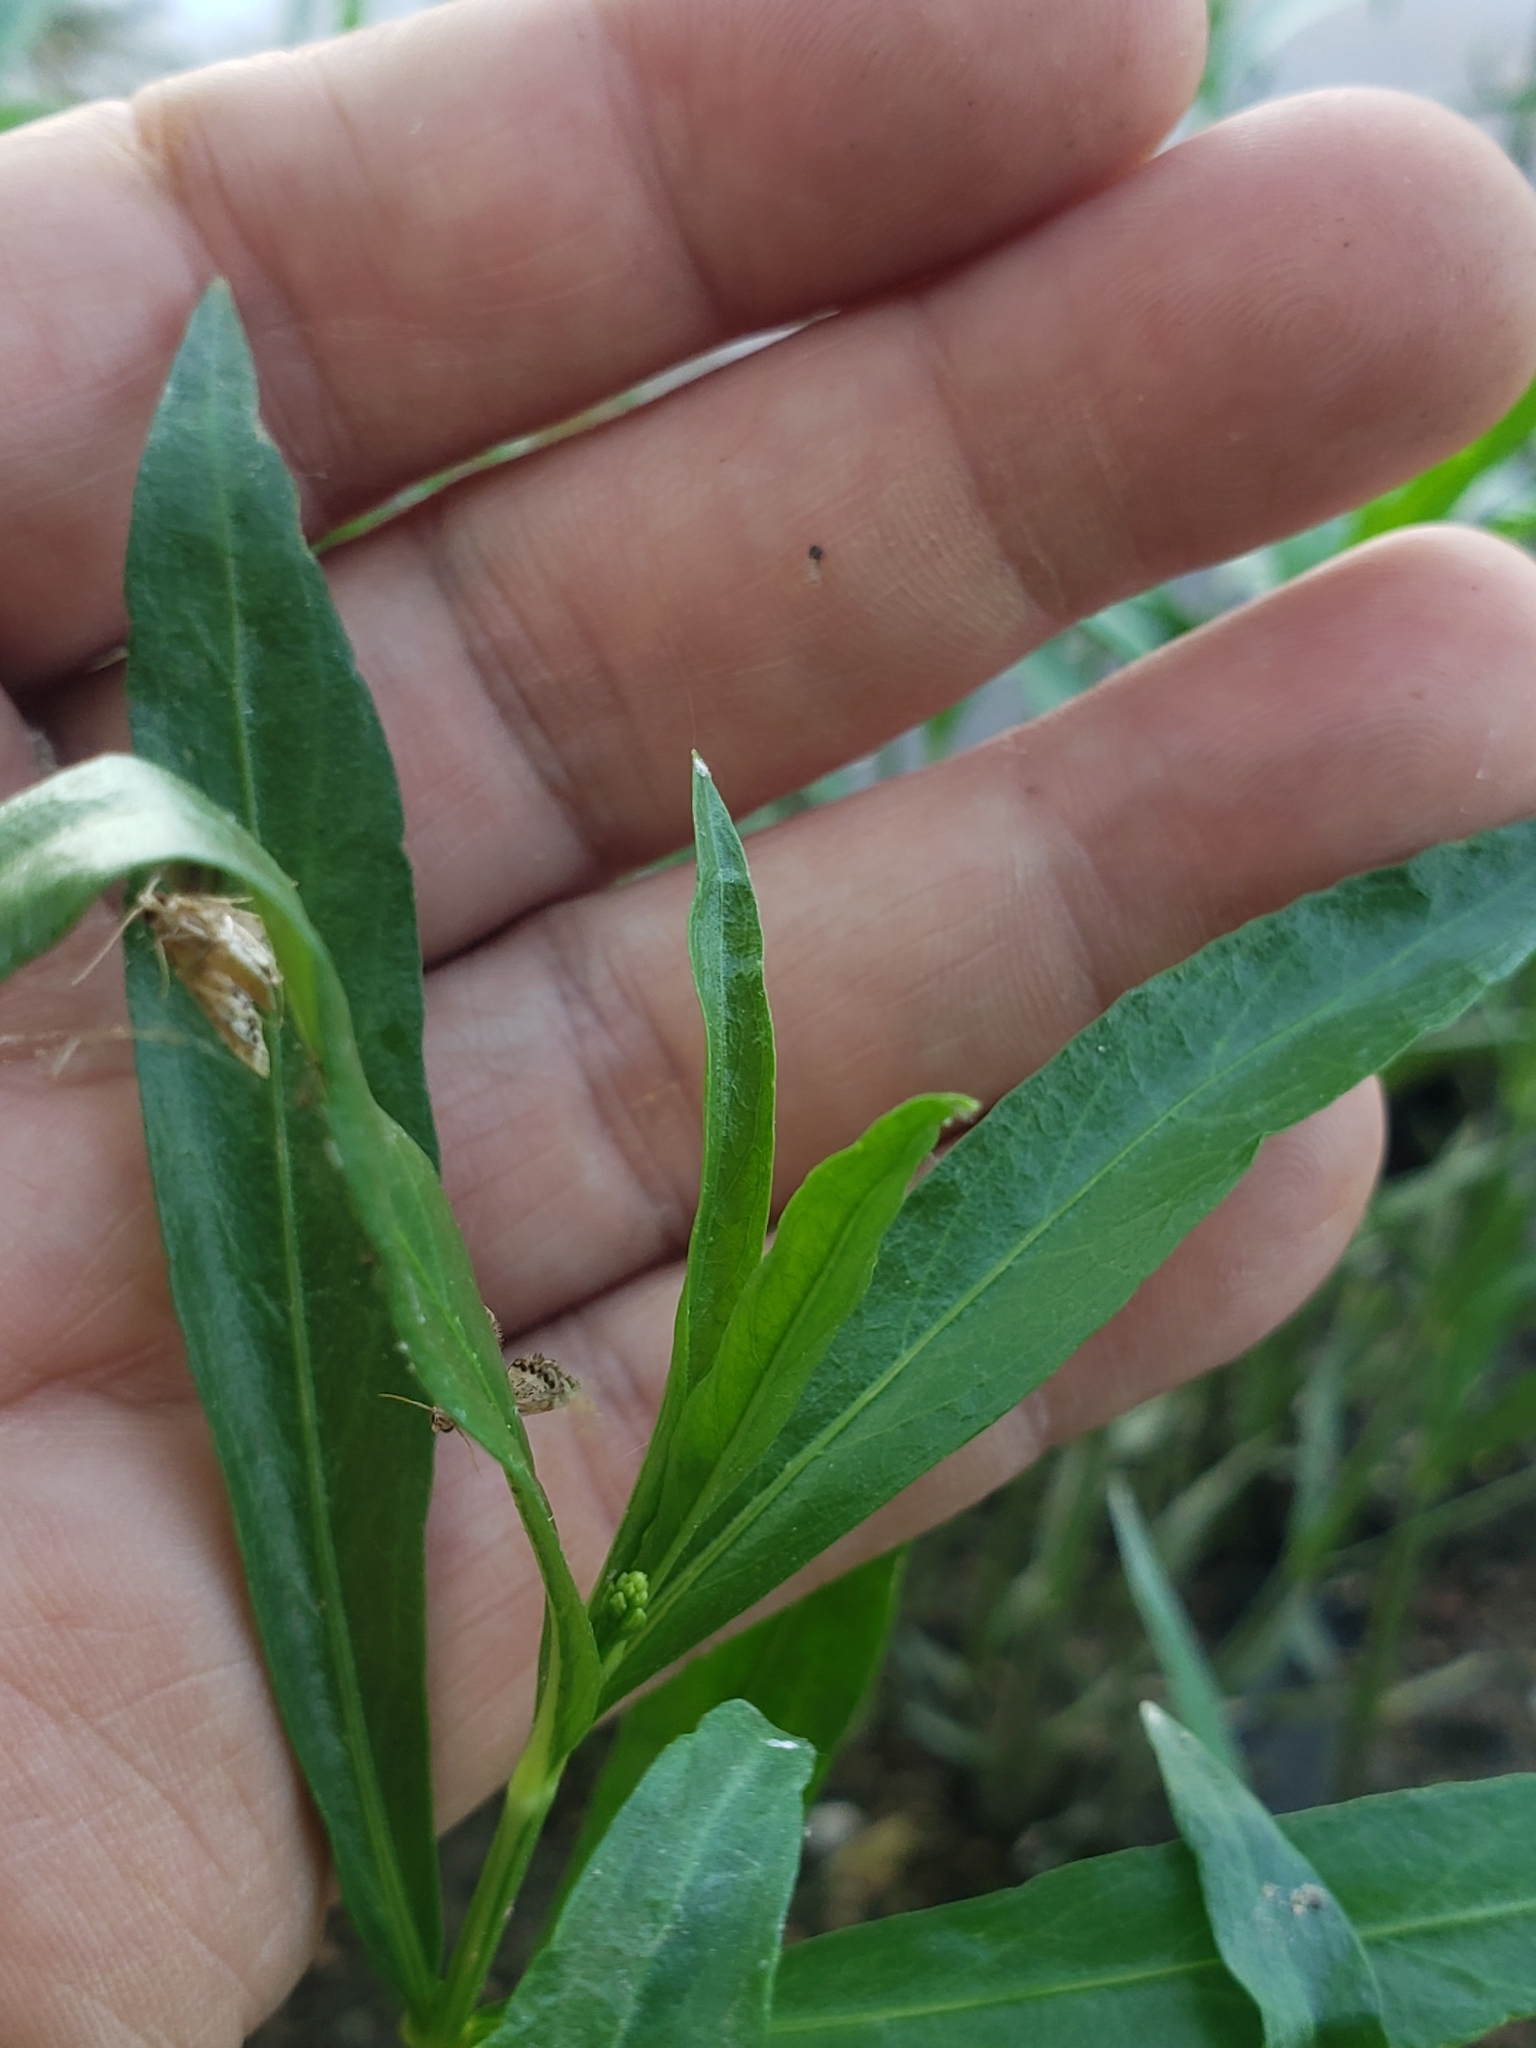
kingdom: Plantae
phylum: Tracheophyta
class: Magnoliopsida
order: Lamiales
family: Acanthaceae
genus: Dianthera
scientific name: Dianthera americana
